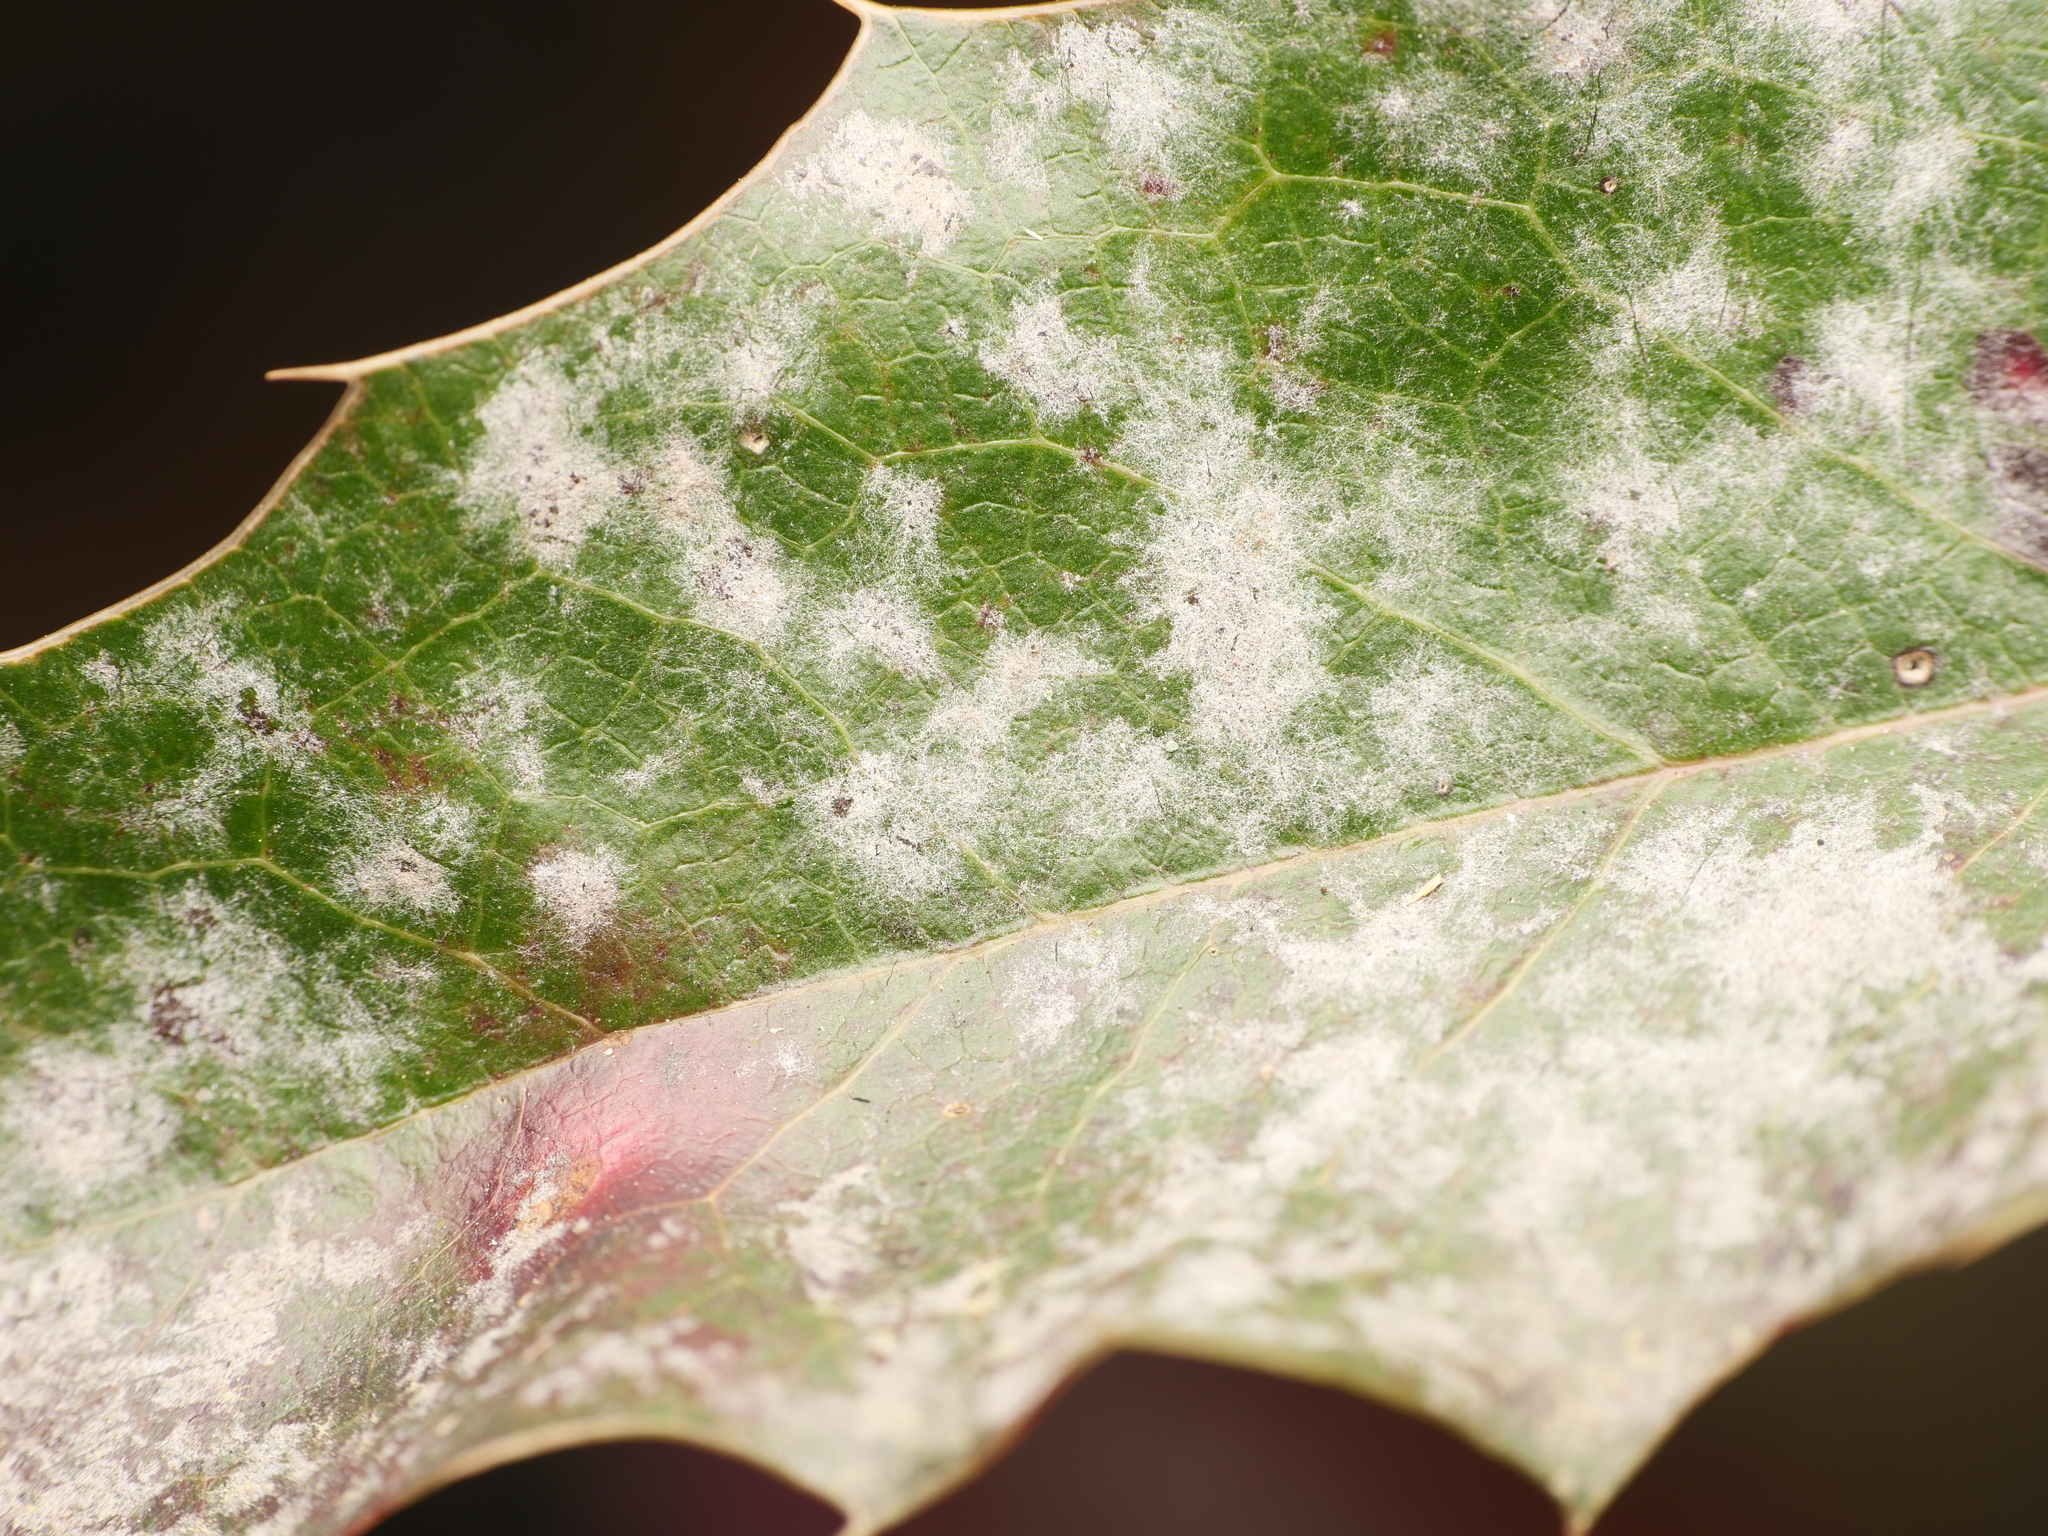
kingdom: Fungi
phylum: Ascomycota
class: Leotiomycetes
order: Helotiales
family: Erysiphaceae
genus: Erysiphe
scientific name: Erysiphe berberidis
